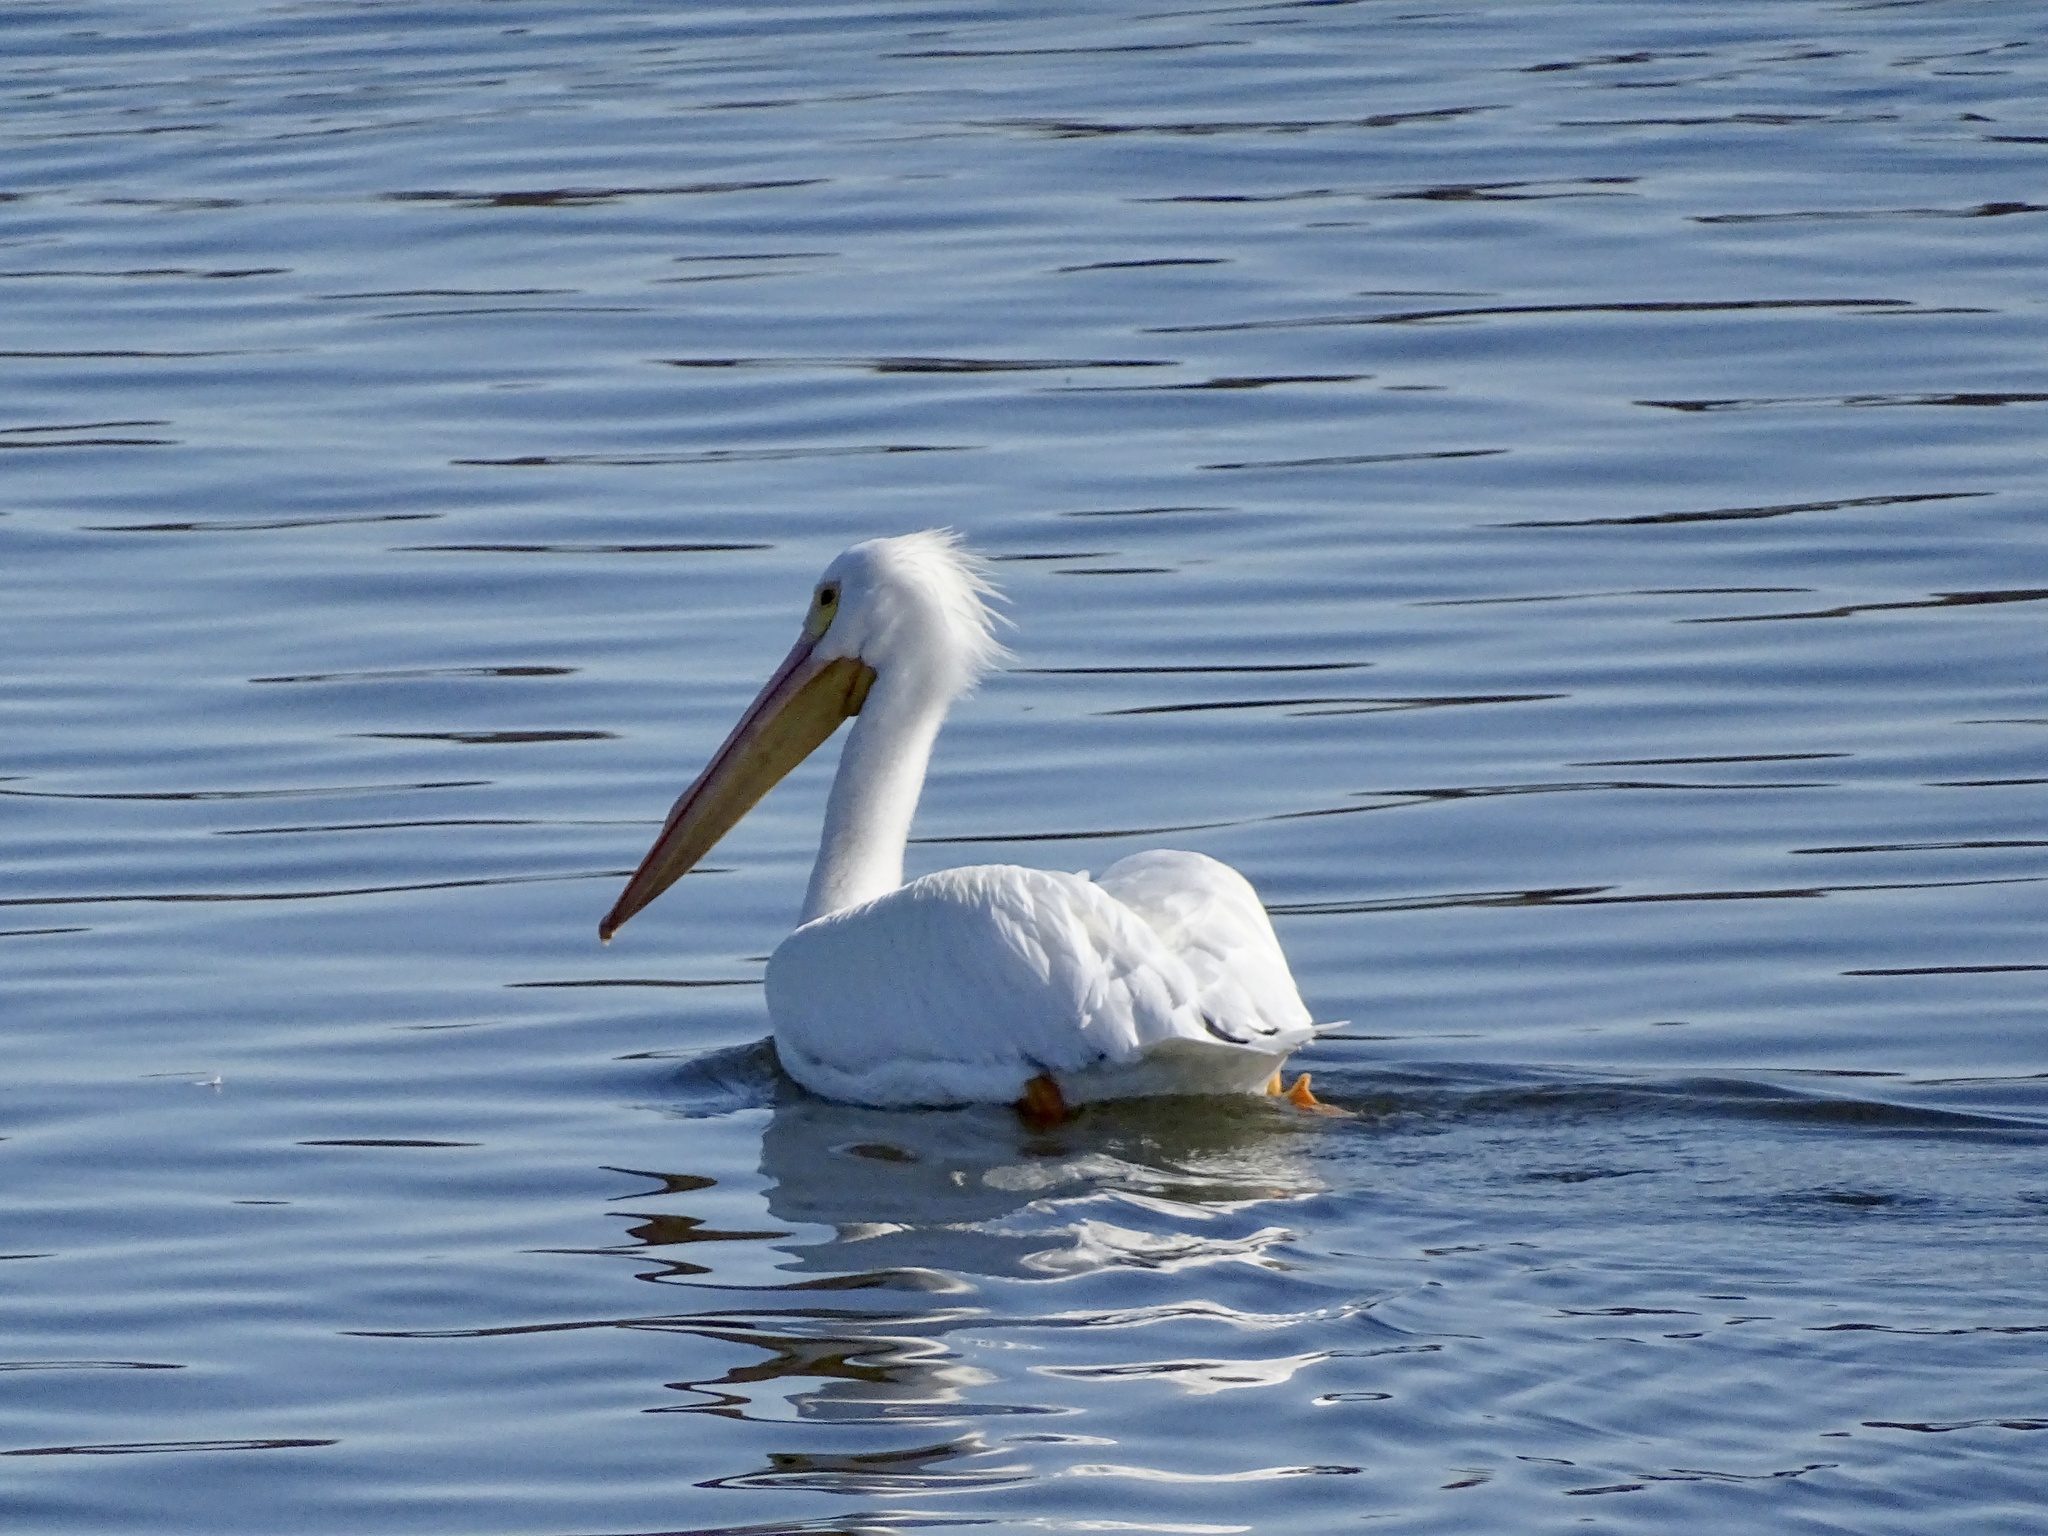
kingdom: Animalia
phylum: Chordata
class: Aves
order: Pelecaniformes
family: Pelecanidae
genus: Pelecanus
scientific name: Pelecanus erythrorhynchos
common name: American white pelican
